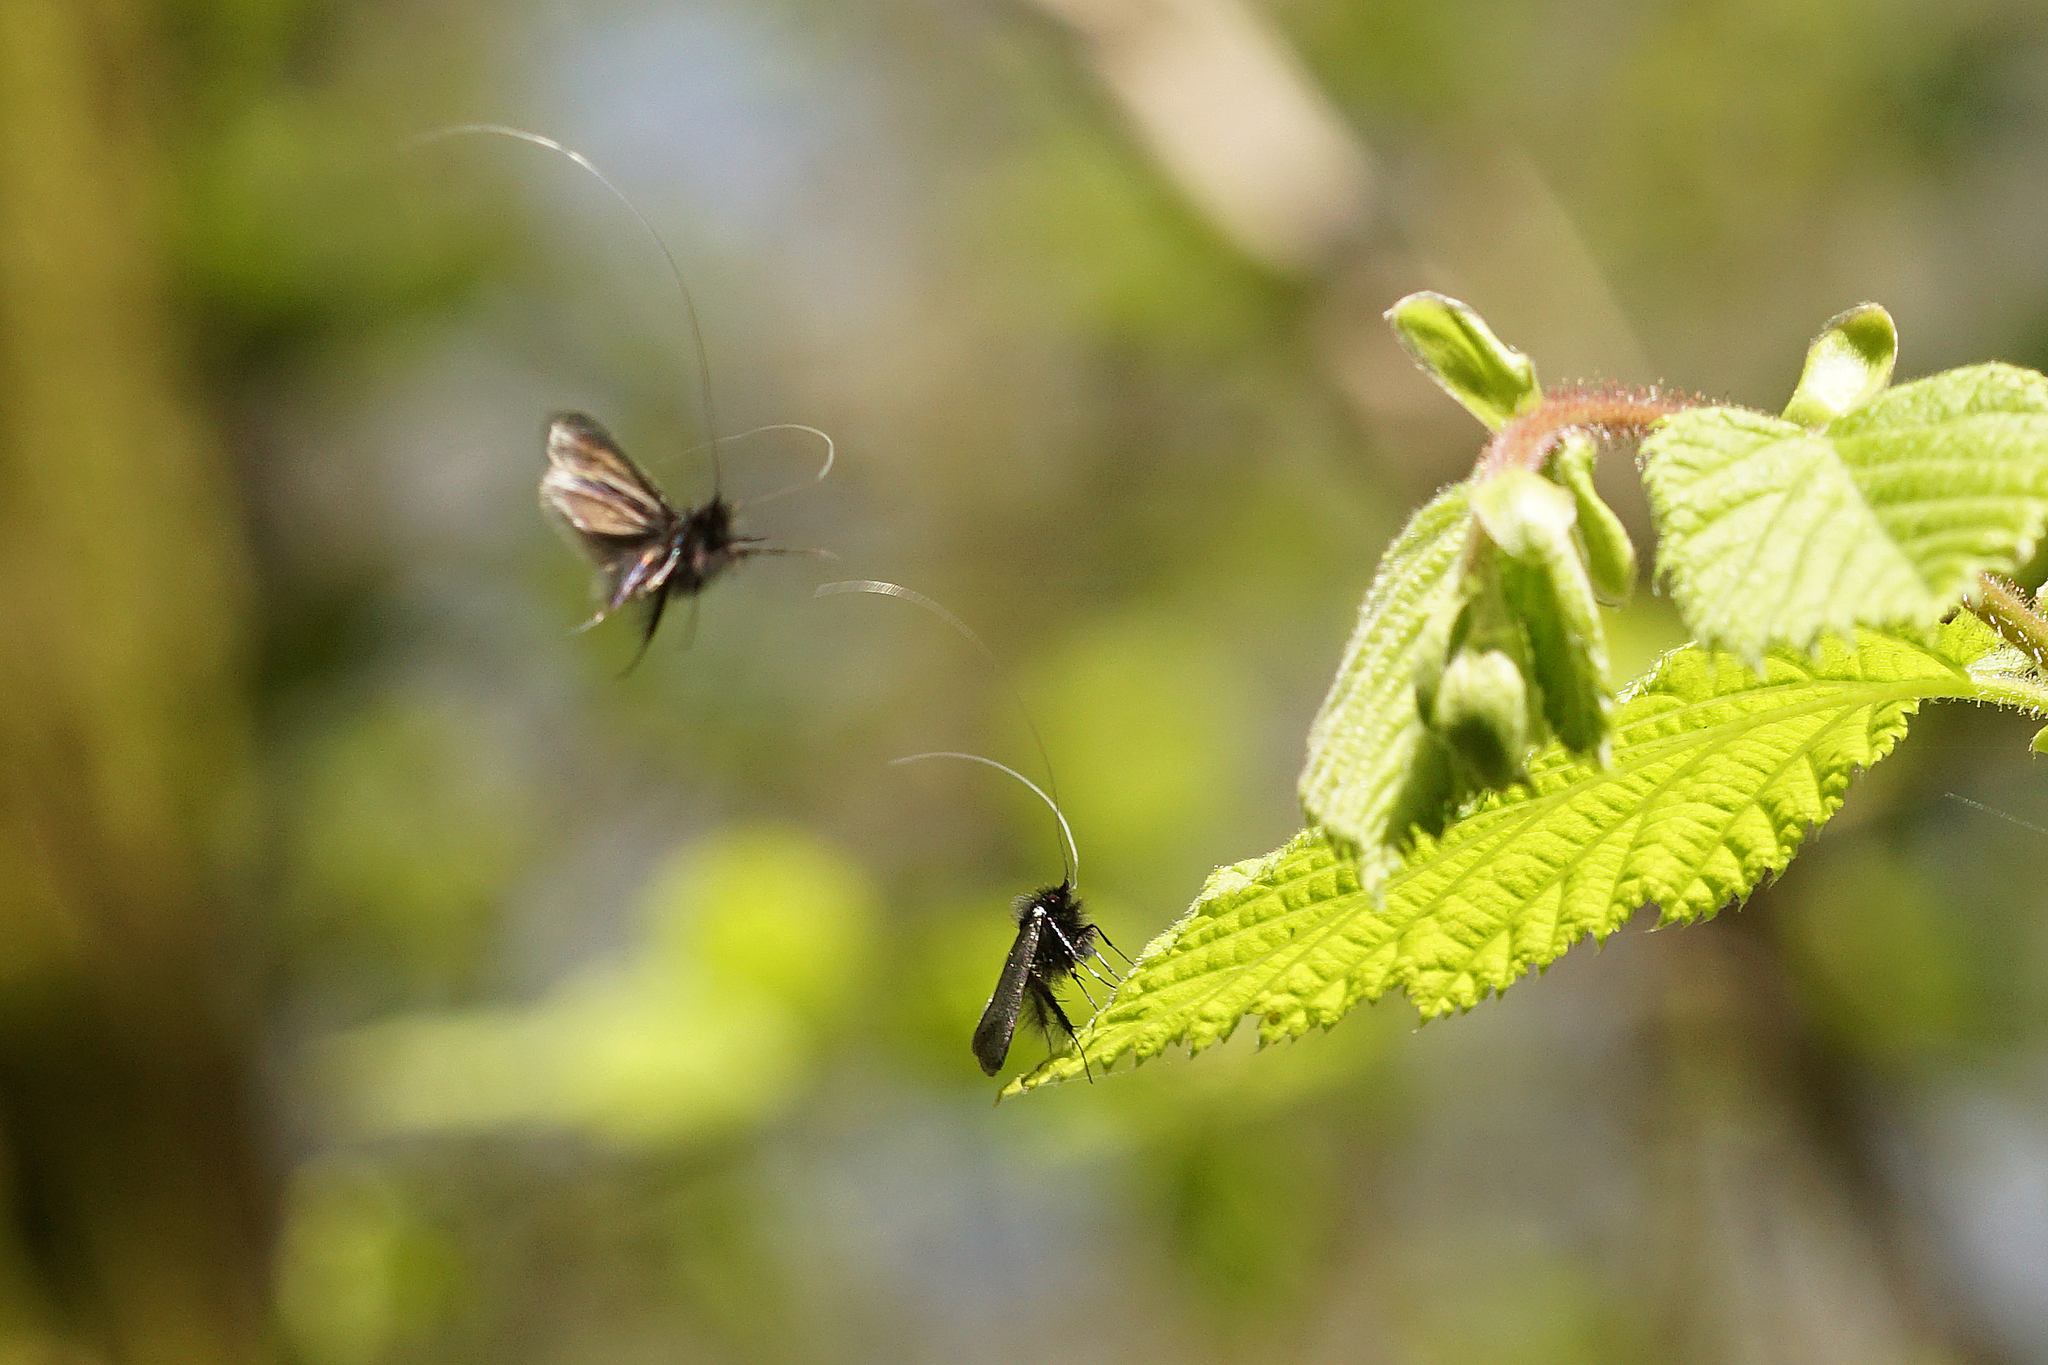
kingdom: Animalia
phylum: Arthropoda
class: Insecta
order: Lepidoptera
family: Adelidae
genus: Adela
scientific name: Adela viridella
